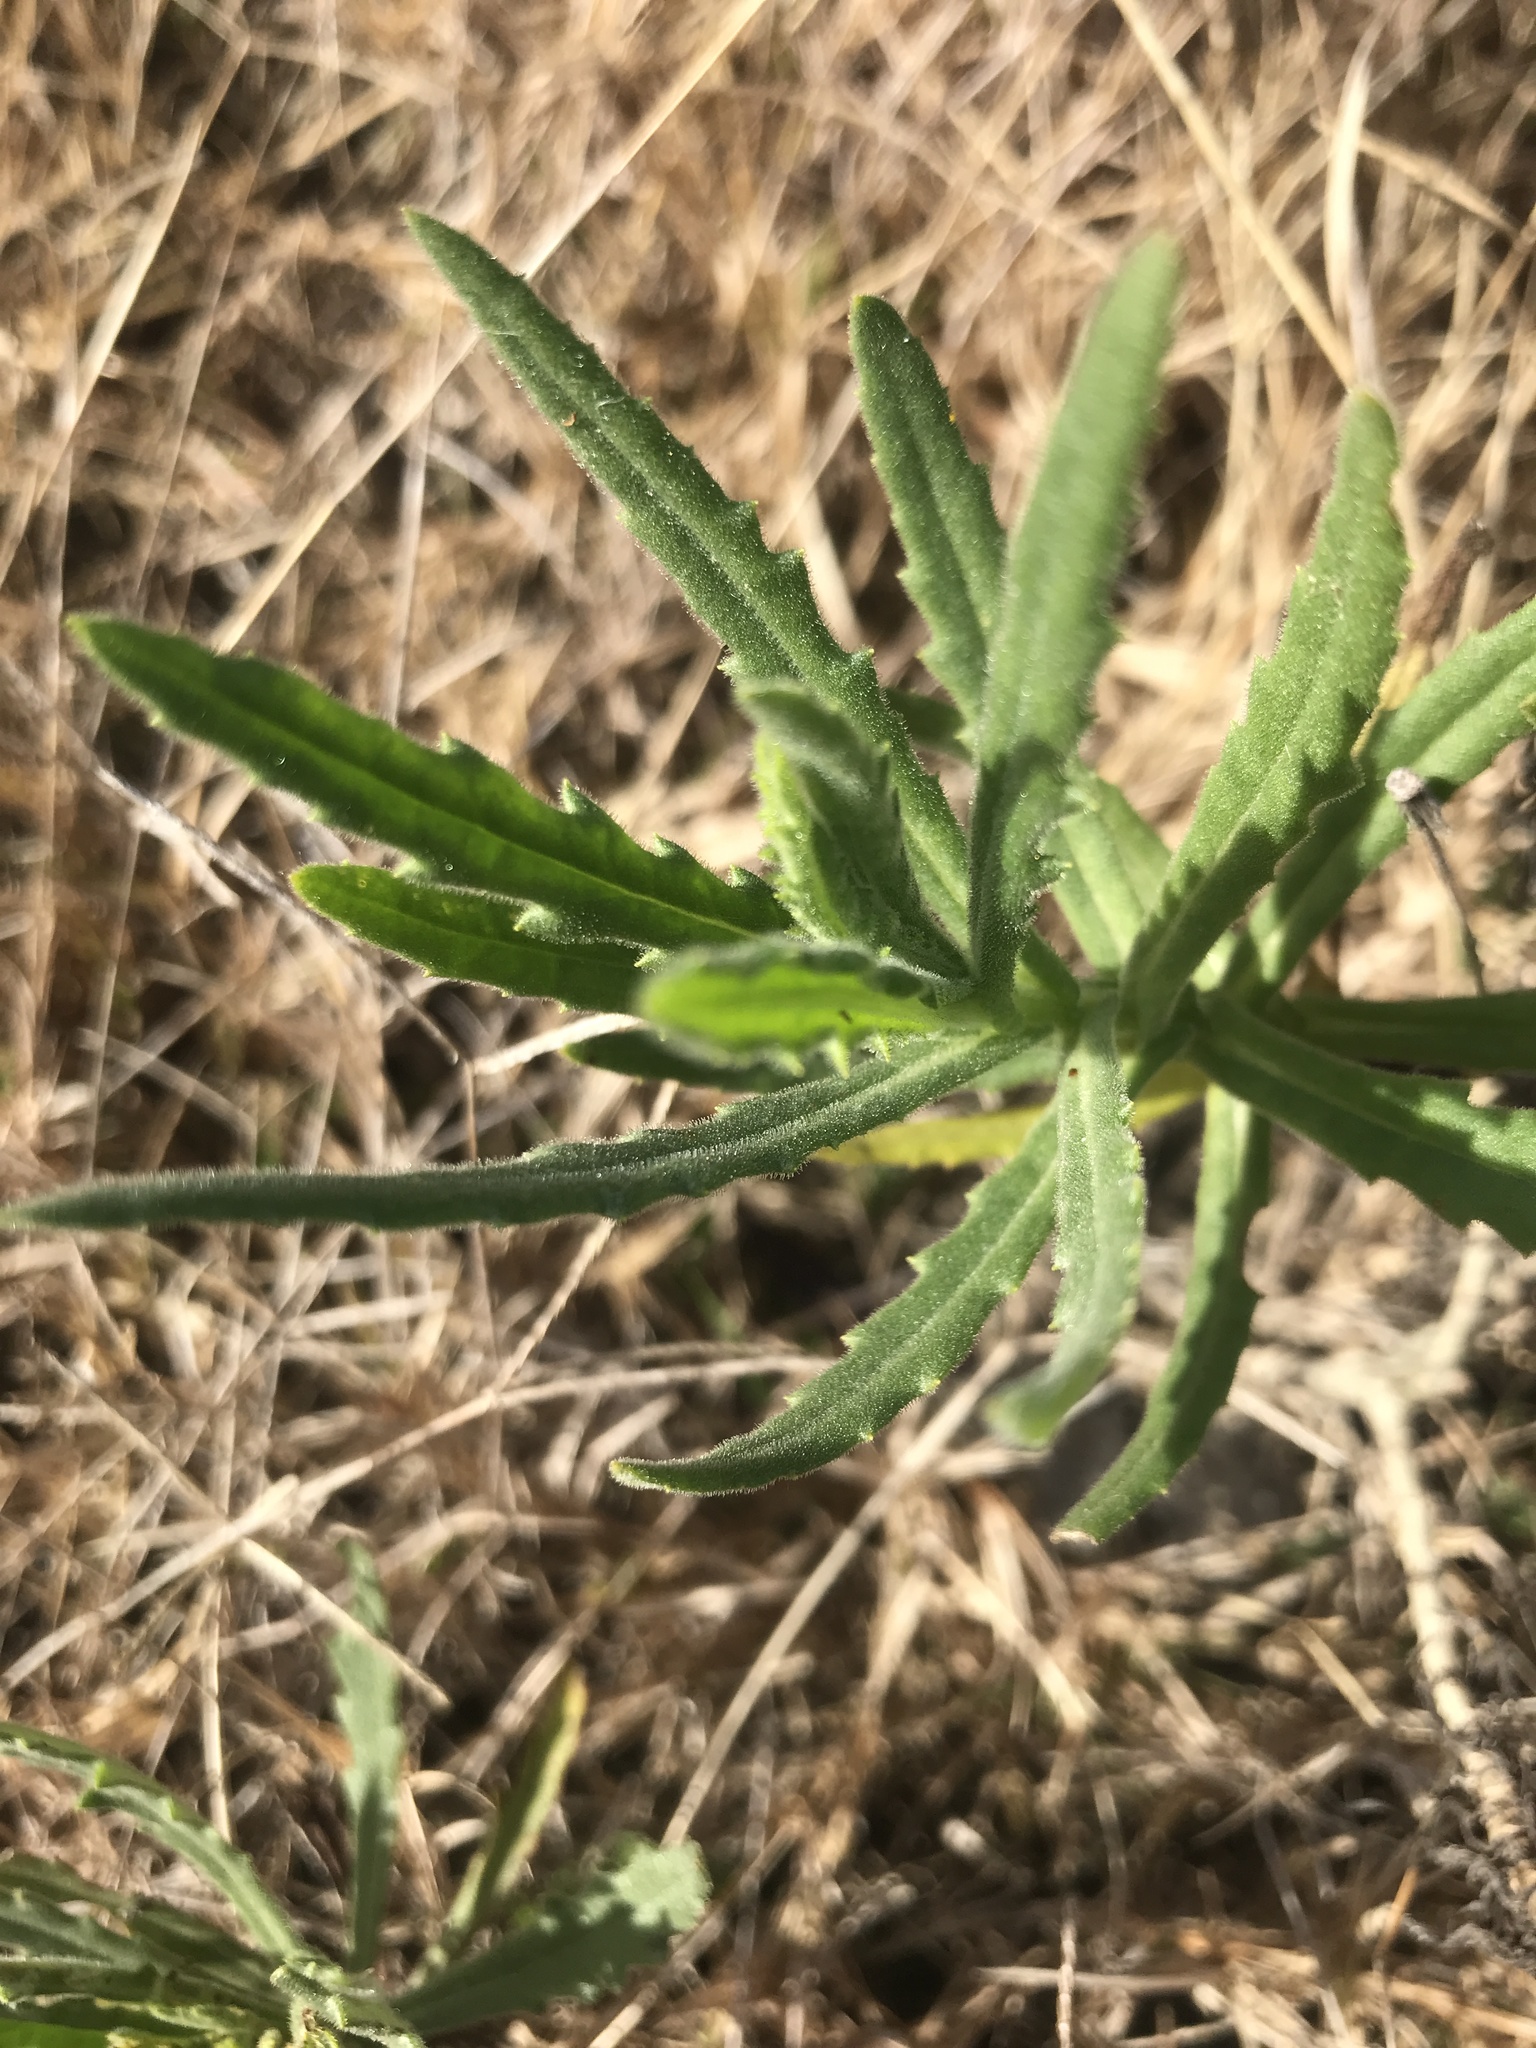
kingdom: Plantae
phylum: Tracheophyta
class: Magnoliopsida
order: Asterales
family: Asteraceae
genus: Senecio
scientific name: Senecio madagascariensis
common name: Madagascar ragwort
